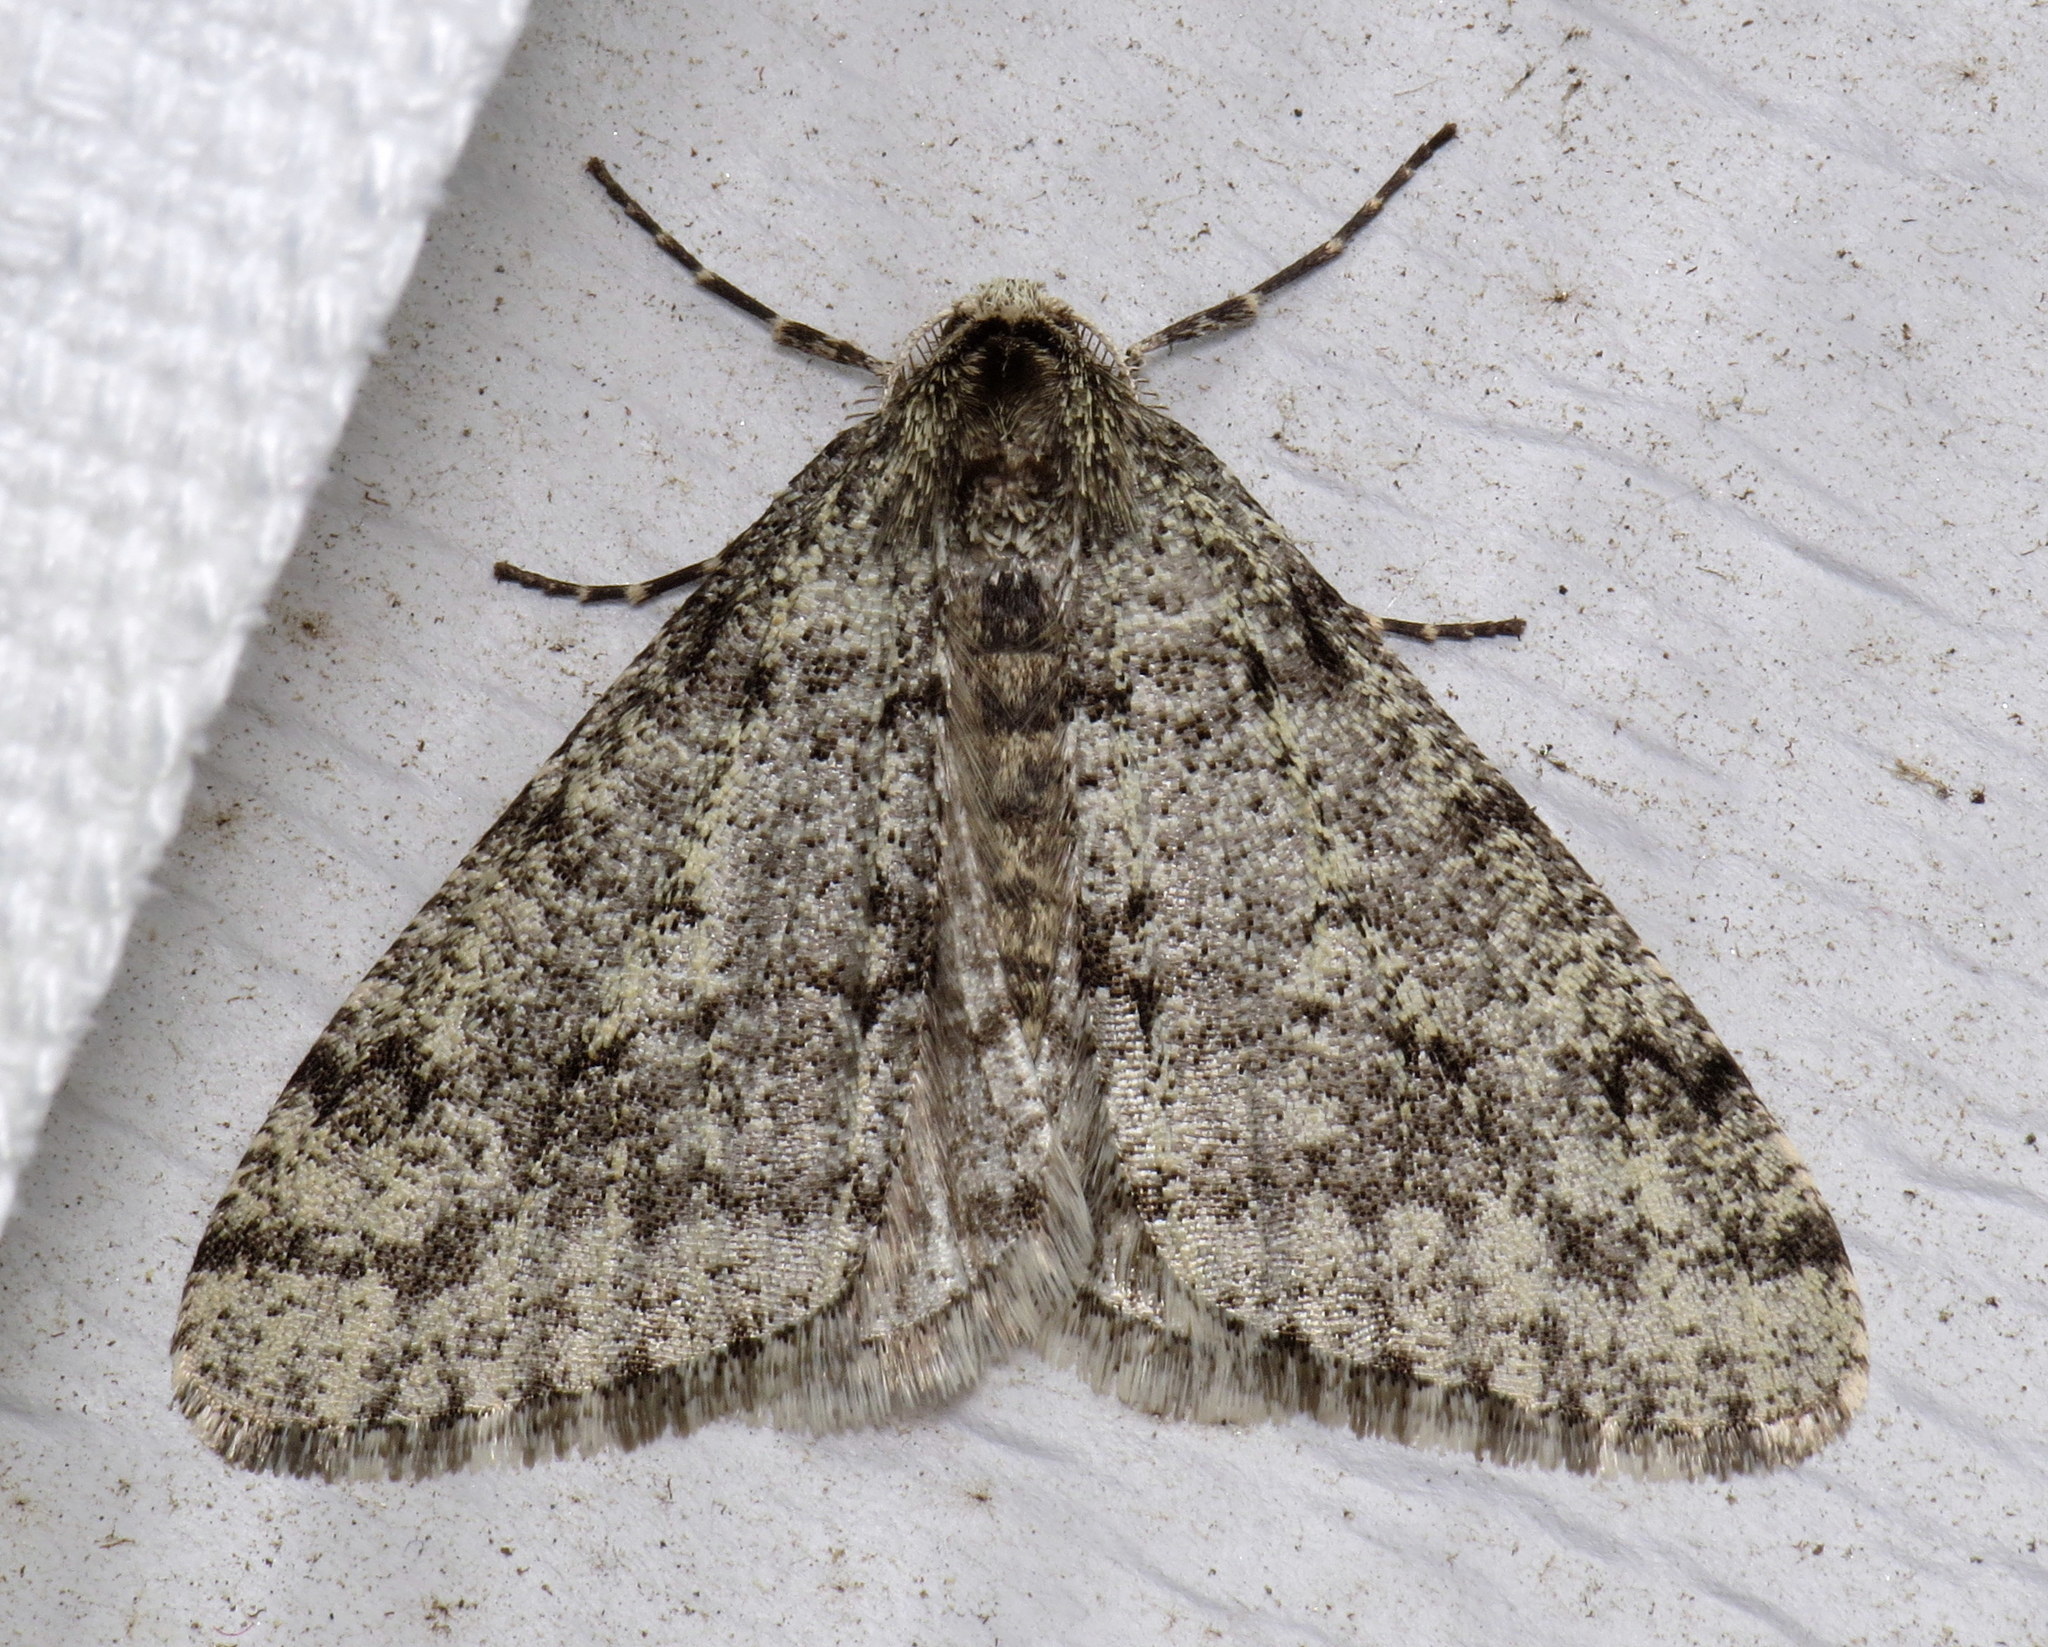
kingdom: Animalia
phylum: Arthropoda
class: Insecta
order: Lepidoptera
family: Geometridae
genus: Phigalia
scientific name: Phigalia strigataria
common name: Small phigalia
